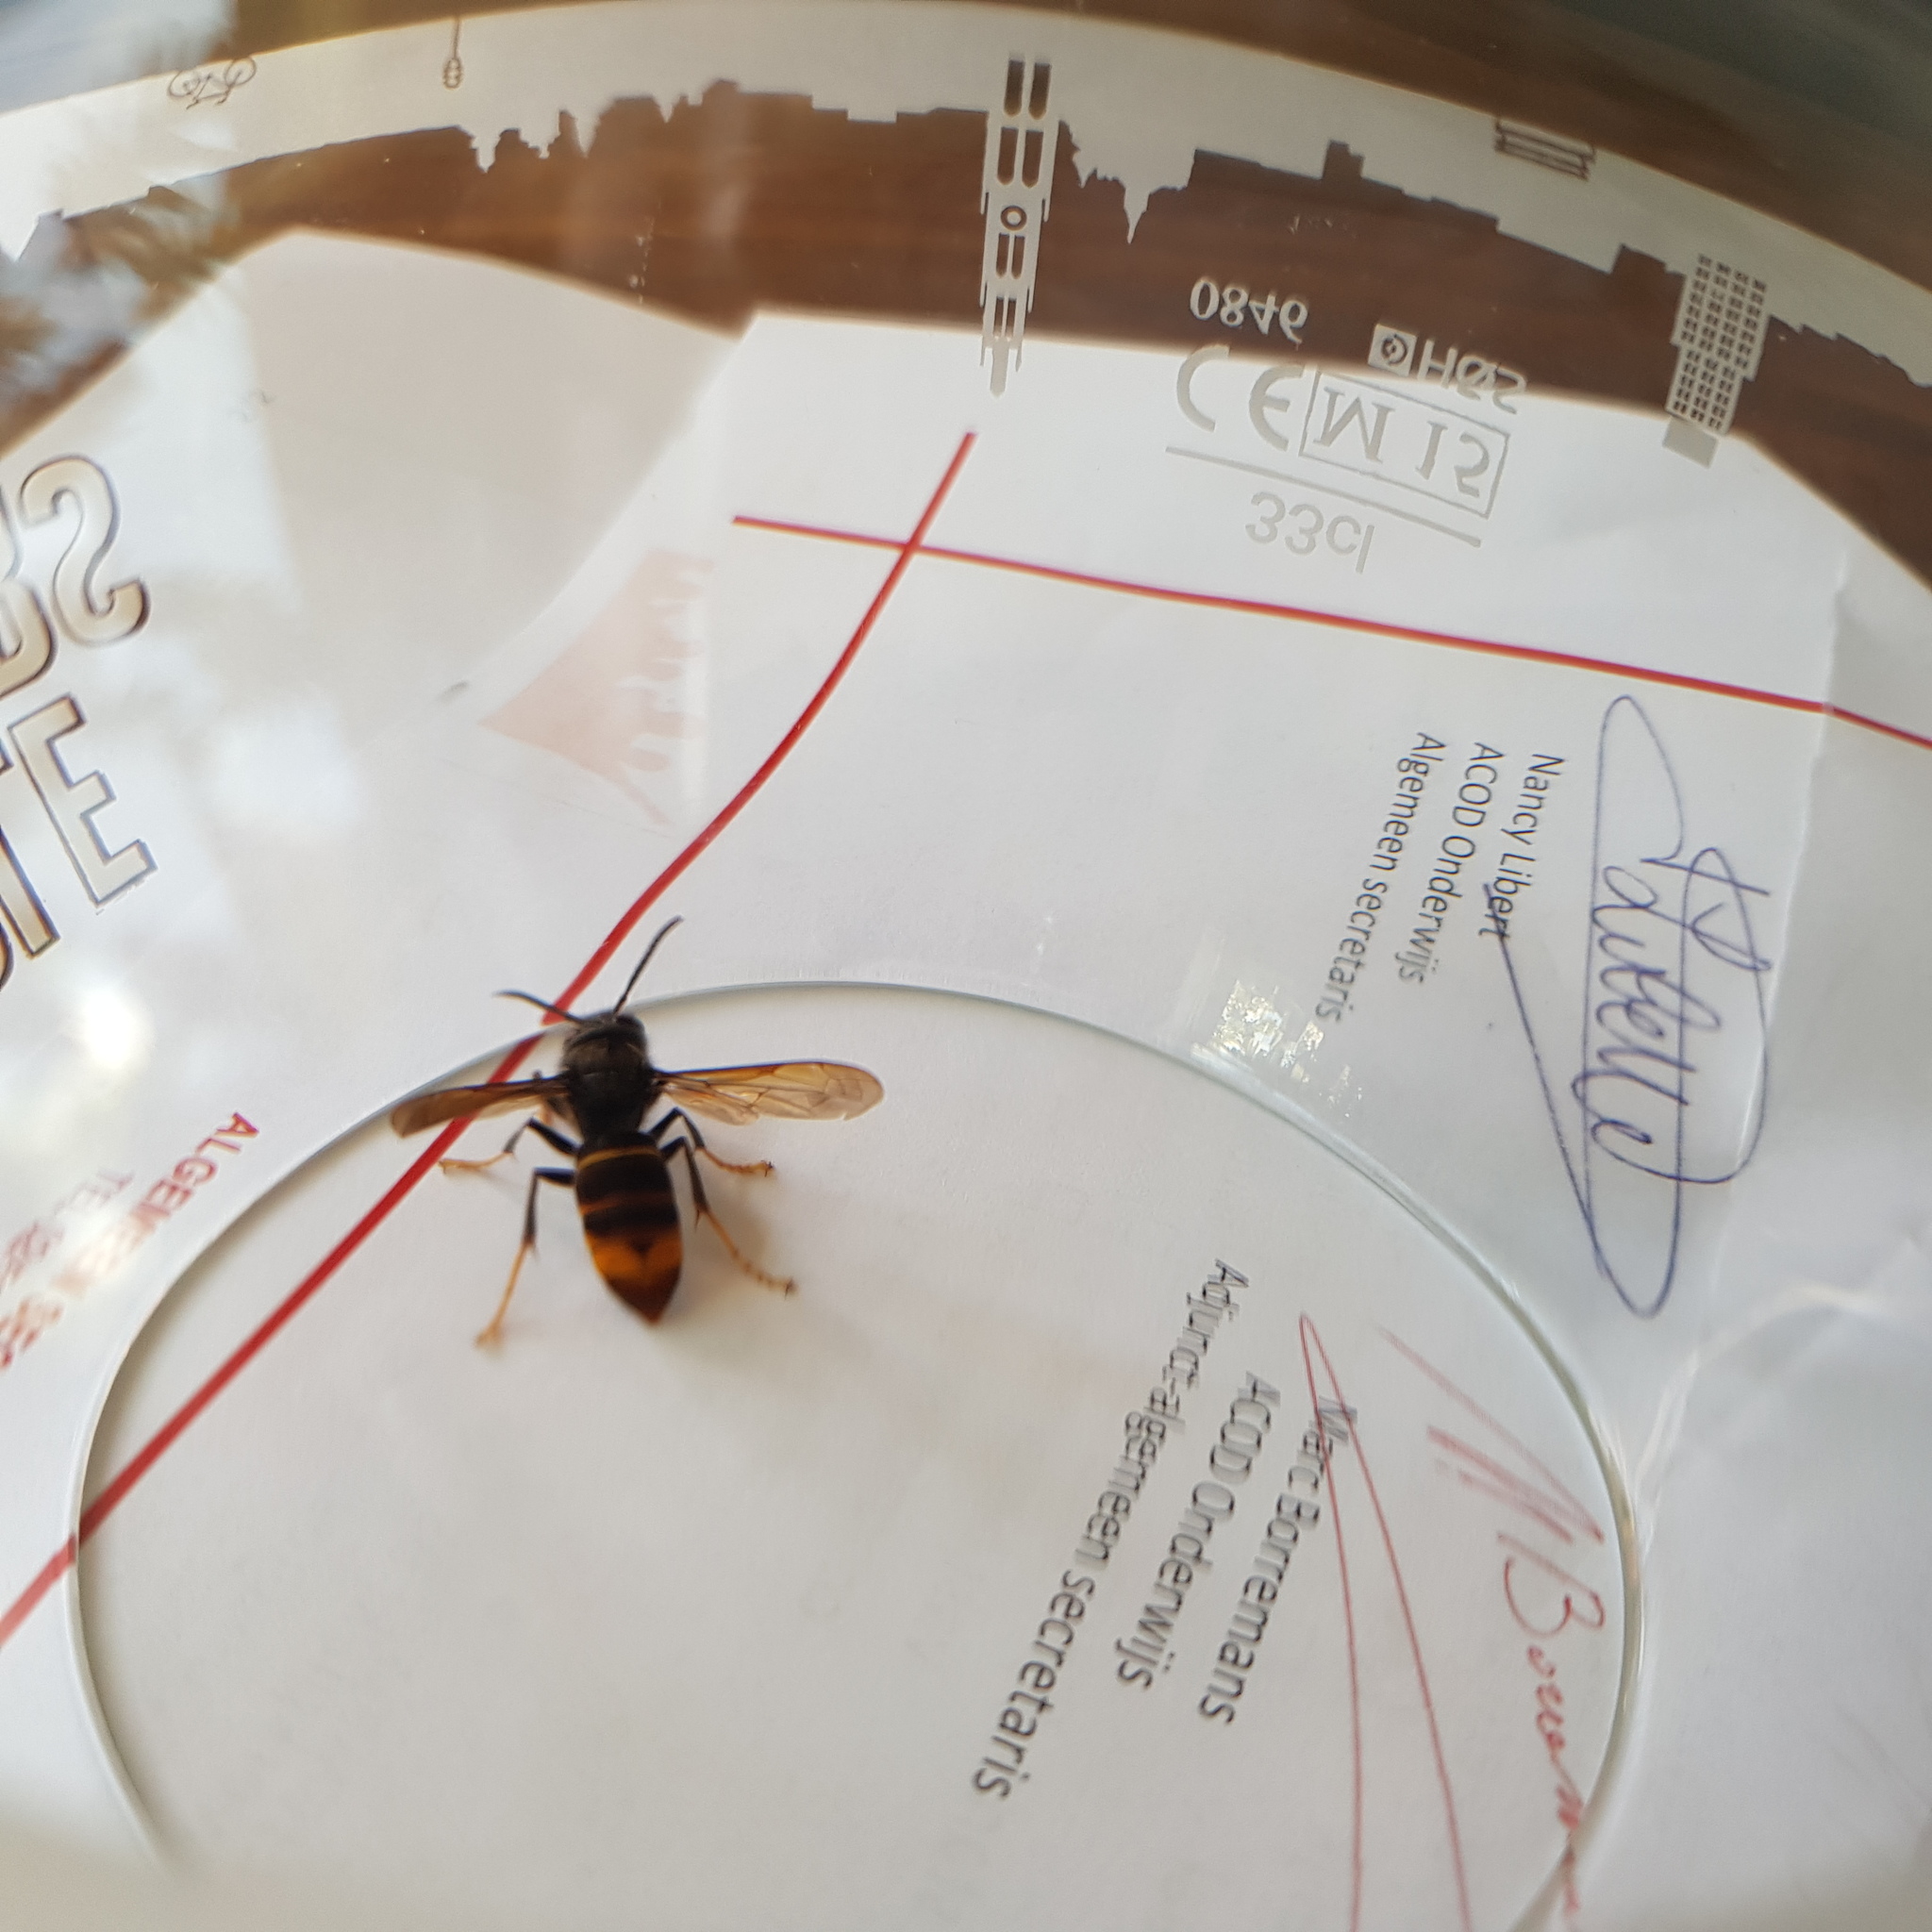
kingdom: Animalia
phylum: Arthropoda
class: Insecta
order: Hymenoptera
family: Vespidae
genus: Vespa
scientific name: Vespa velutina
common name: Asian hornet
